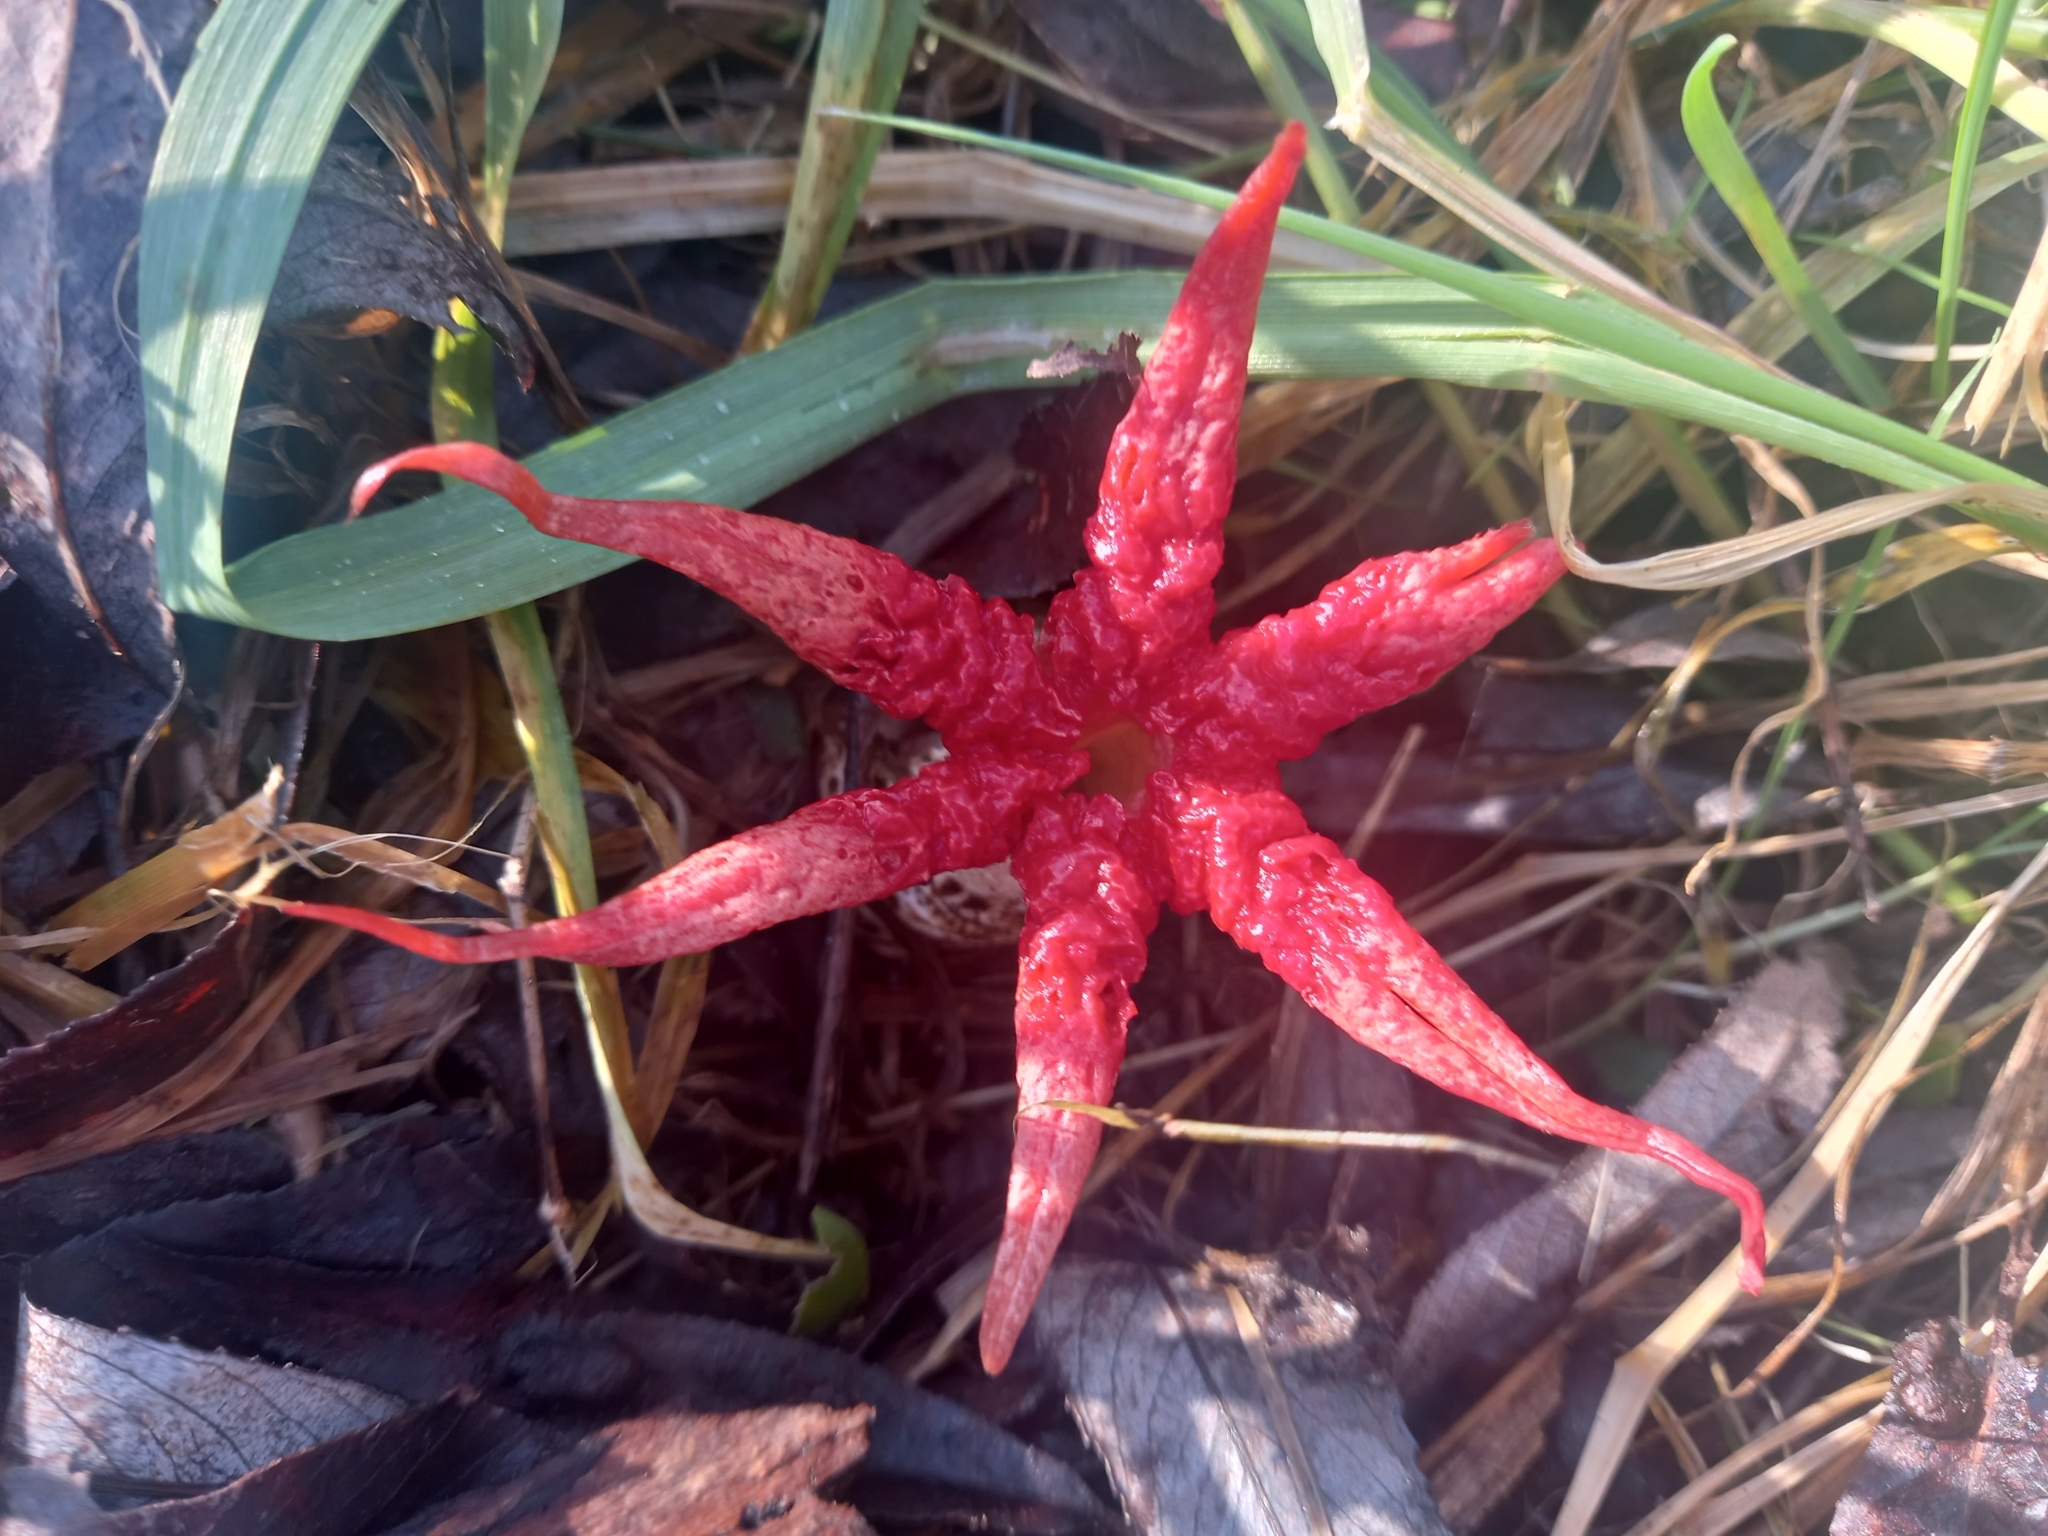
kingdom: Fungi
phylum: Basidiomycota
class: Agaricomycetes
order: Phallales
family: Phallaceae
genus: Aseroe
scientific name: Aseroe rubra
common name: Starfish fungus
